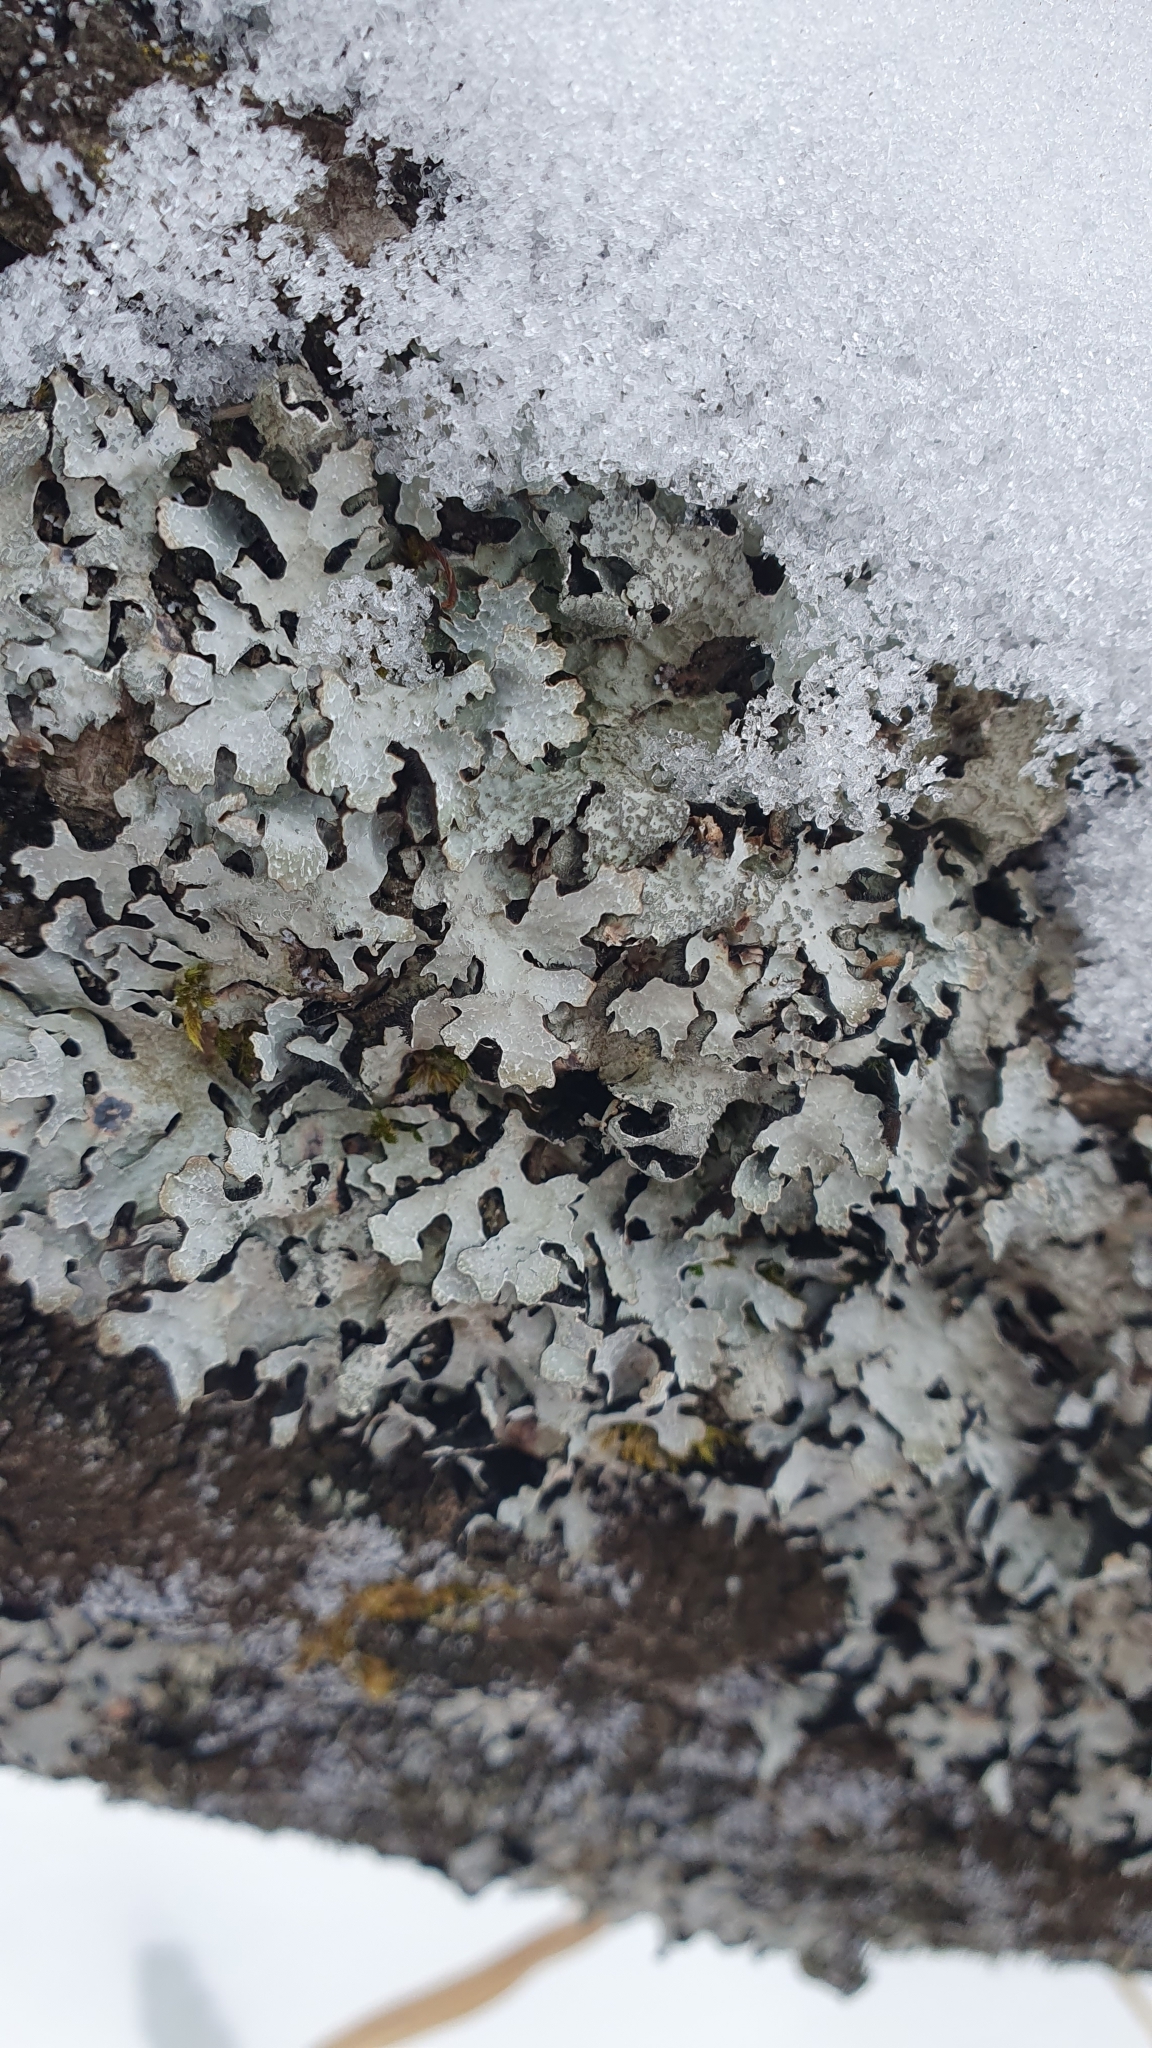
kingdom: Fungi
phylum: Ascomycota
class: Lecanoromycetes
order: Lecanorales
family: Parmeliaceae
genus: Parmelia
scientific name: Parmelia sulcata
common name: Netted shield lichen
